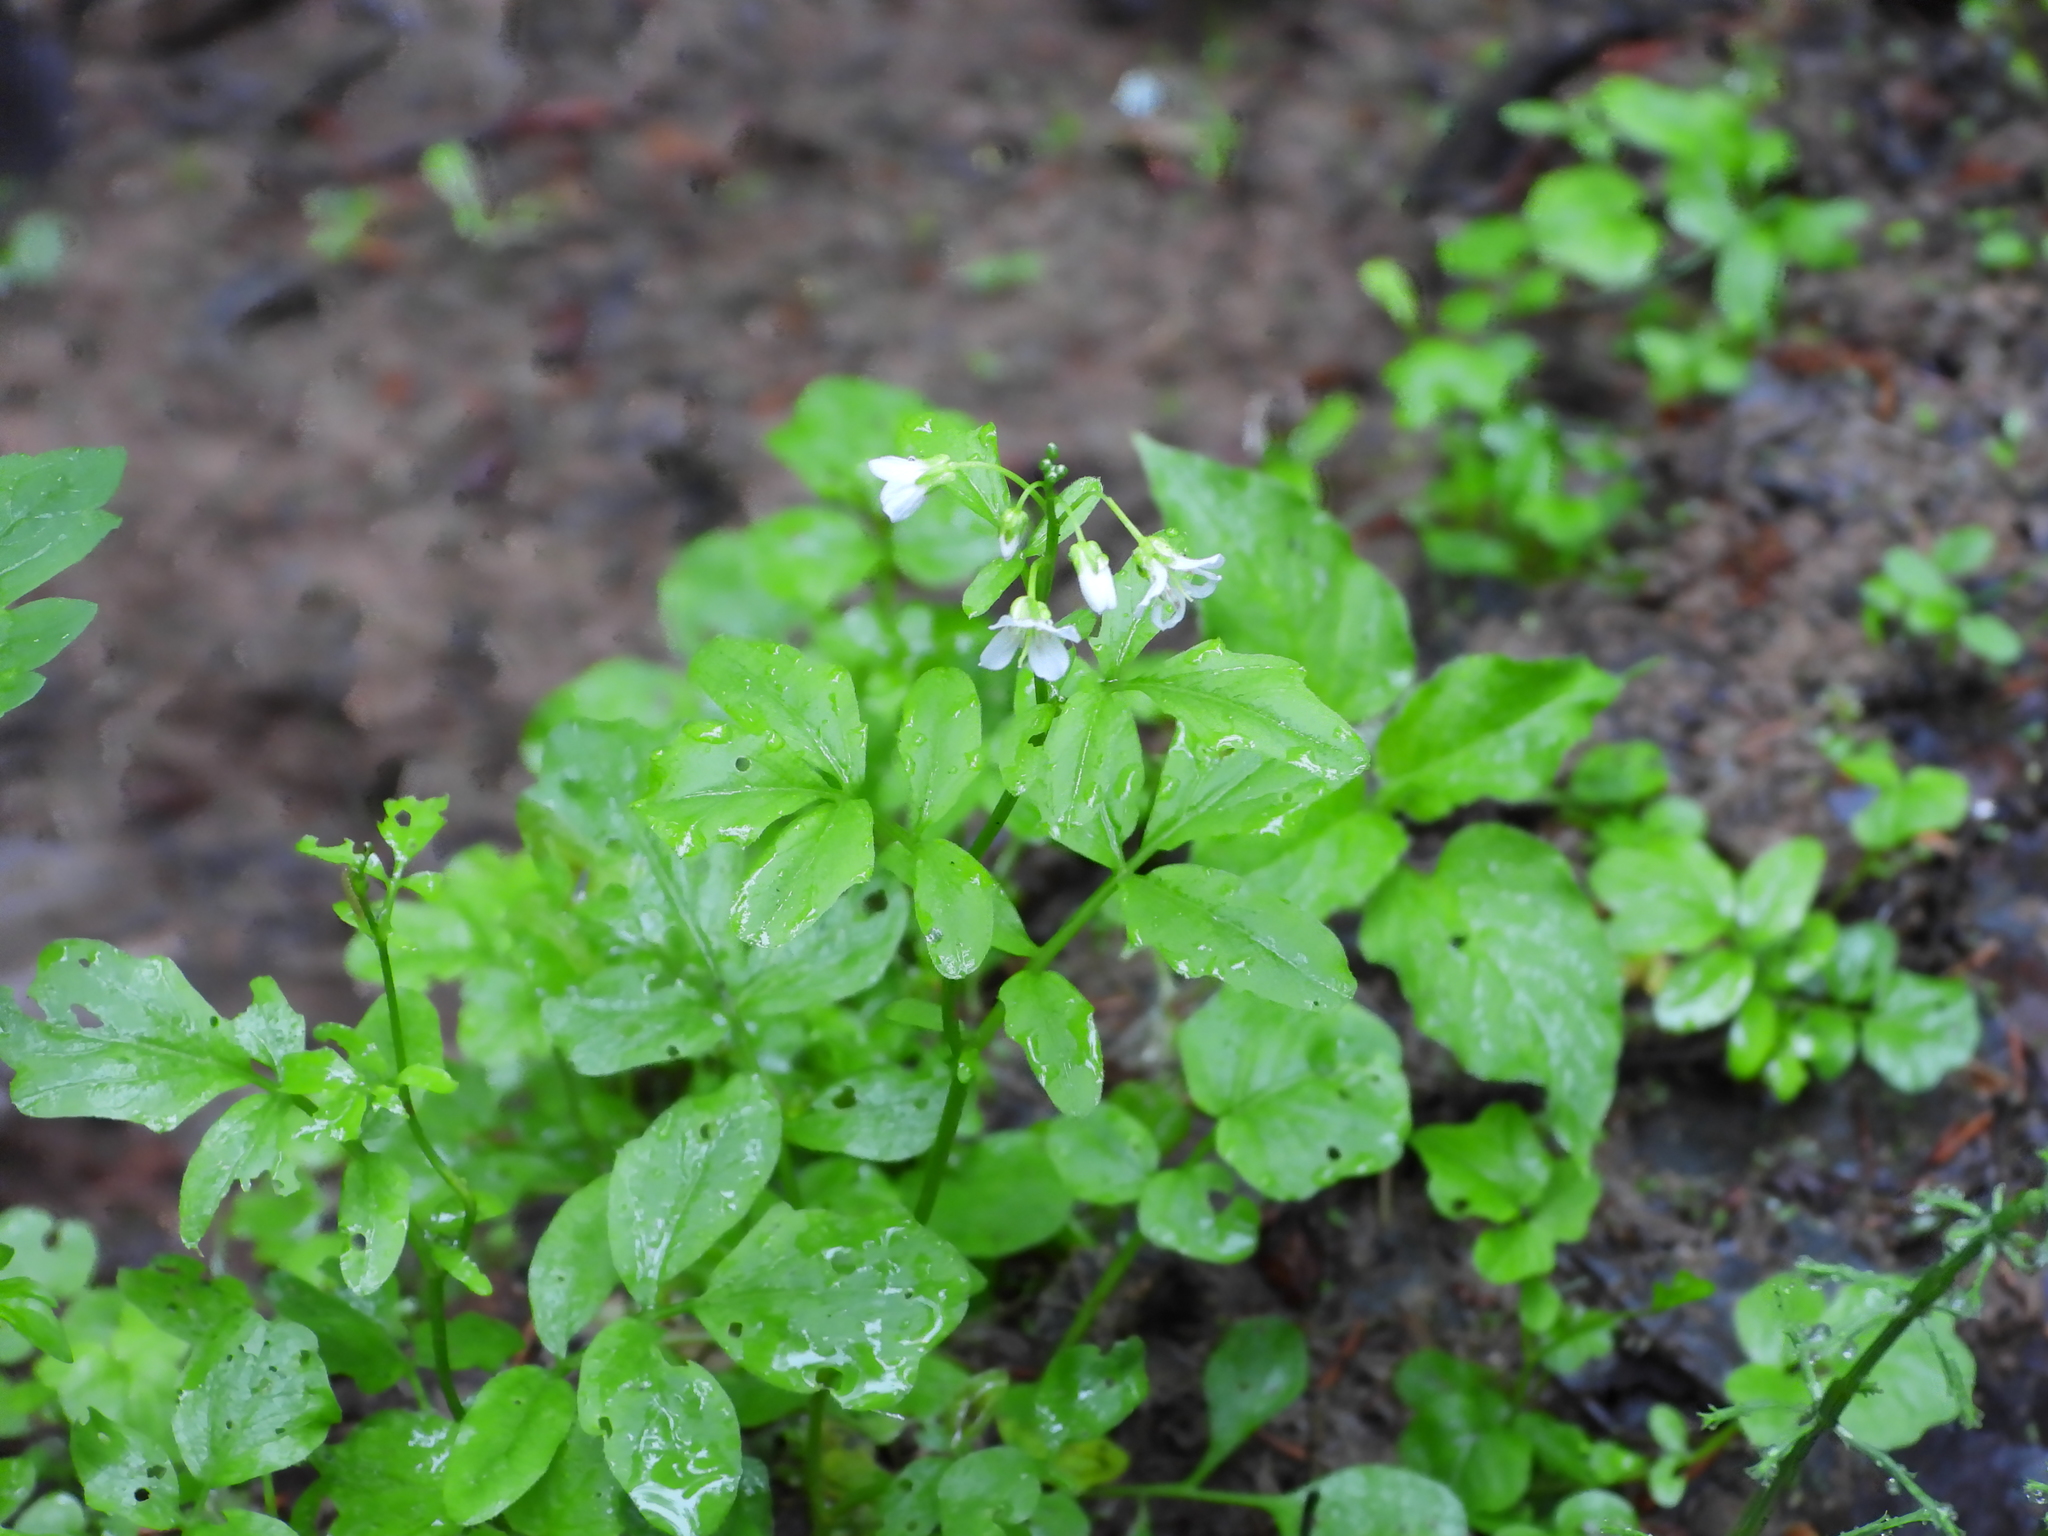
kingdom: Plantae
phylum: Tracheophyta
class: Magnoliopsida
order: Brassicales
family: Brassicaceae
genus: Cardamine
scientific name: Cardamine amara
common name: Large bitter-cress
